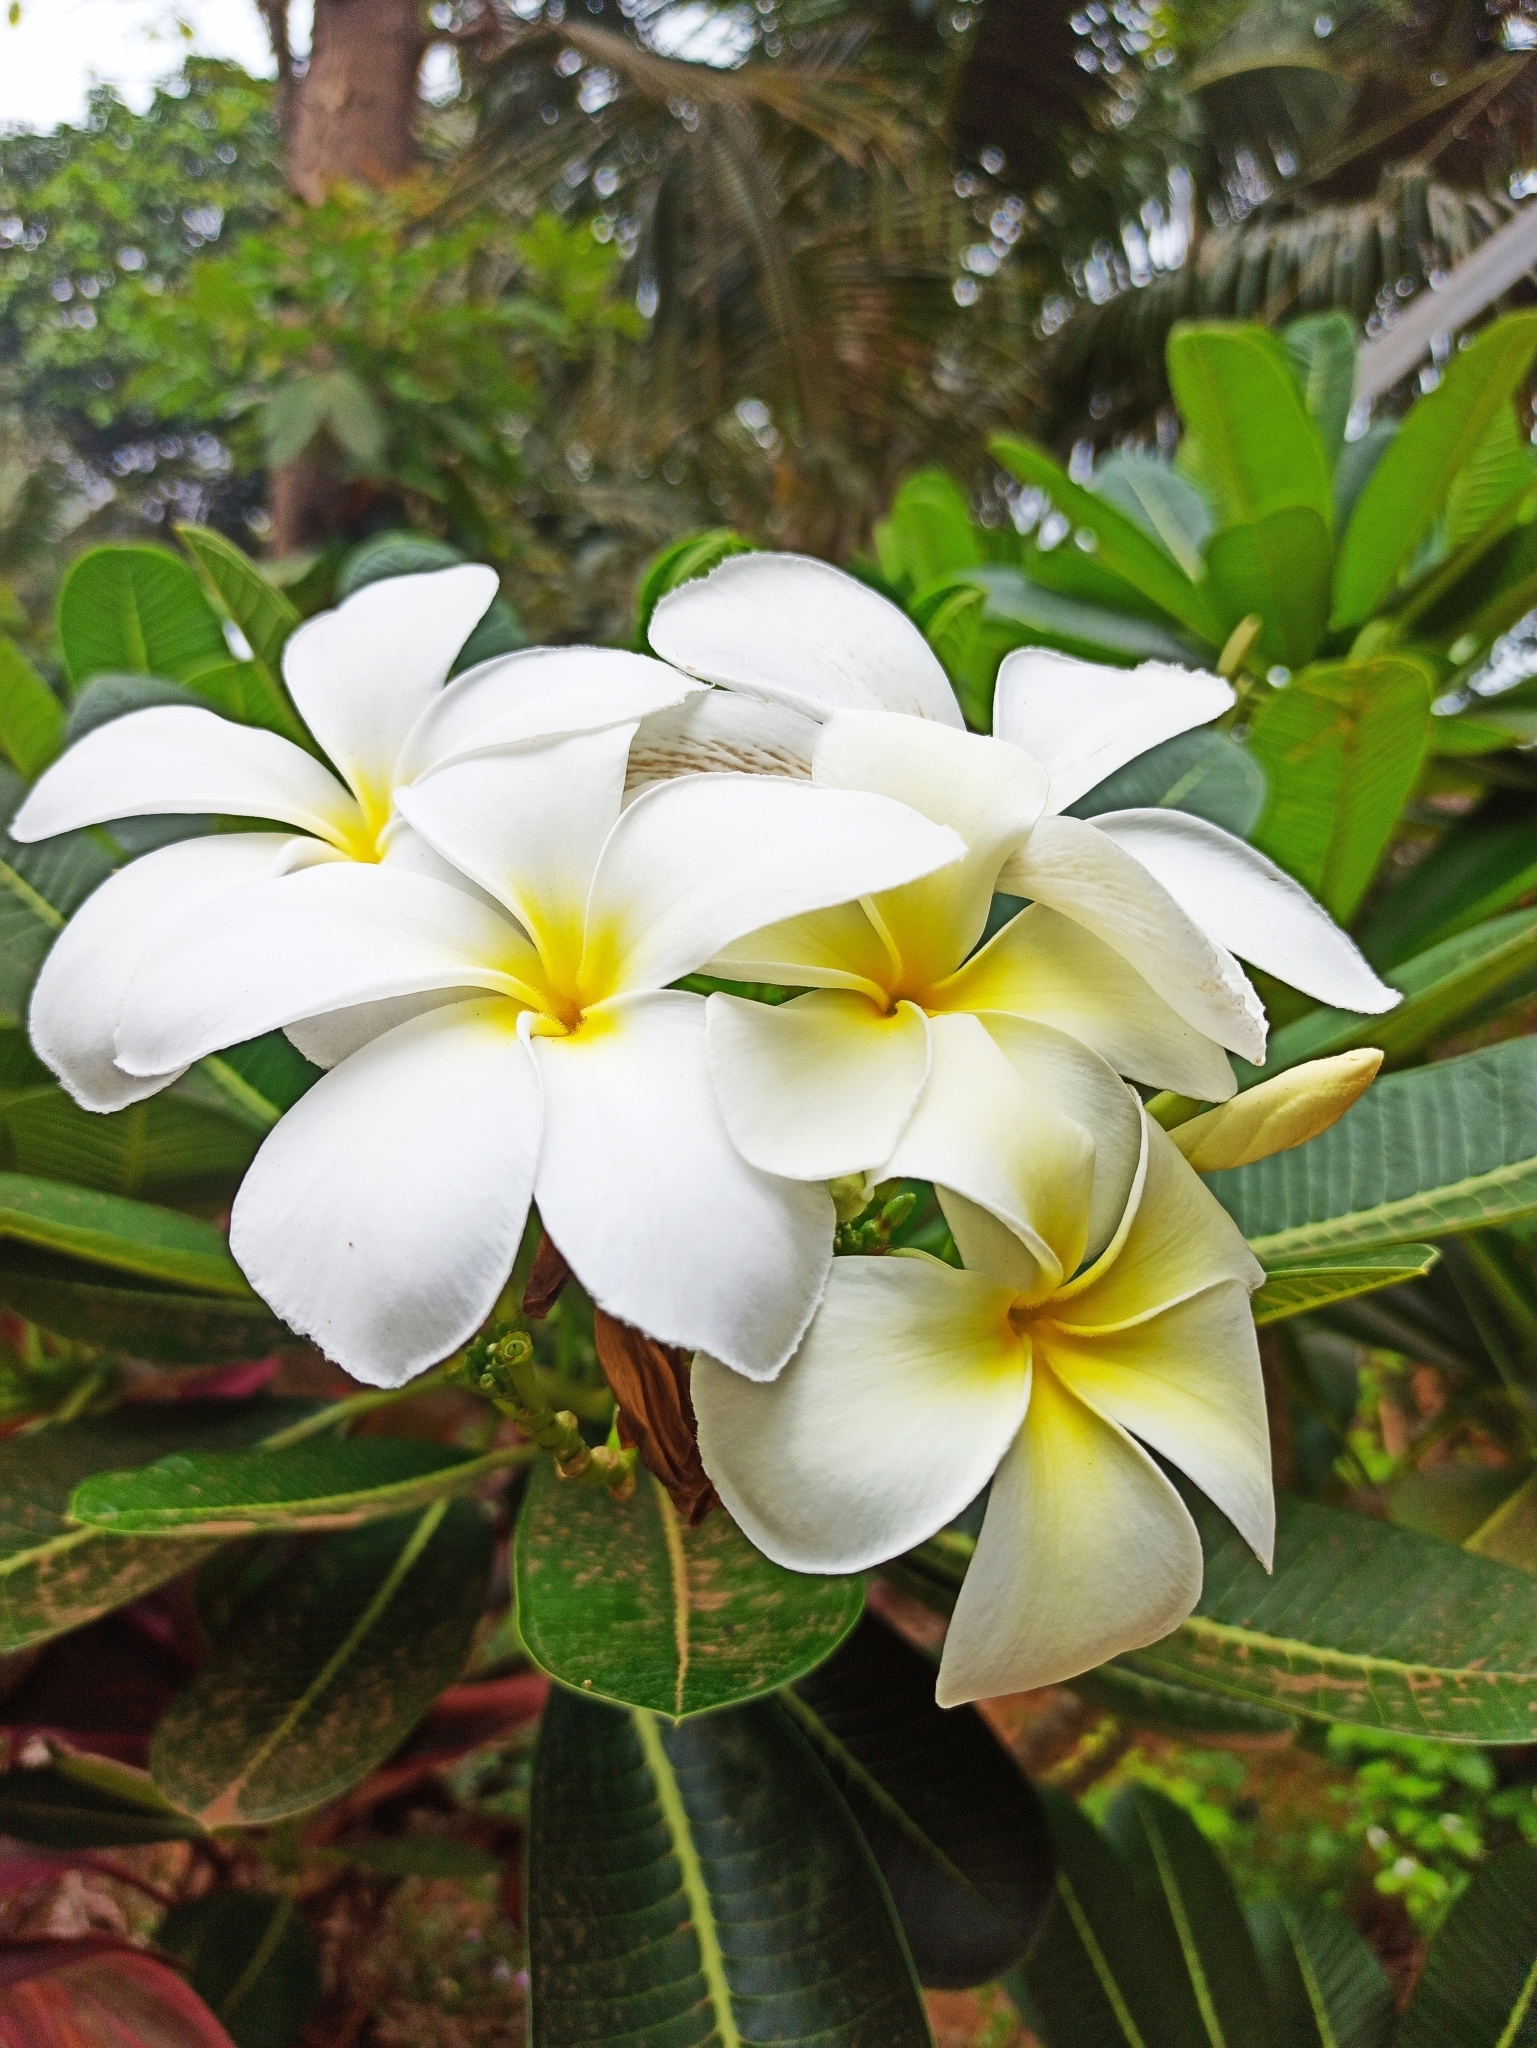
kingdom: Plantae
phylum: Tracheophyta
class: Magnoliopsida
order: Gentianales
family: Apocynaceae
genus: Plumeria
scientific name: Plumeria obtusa
